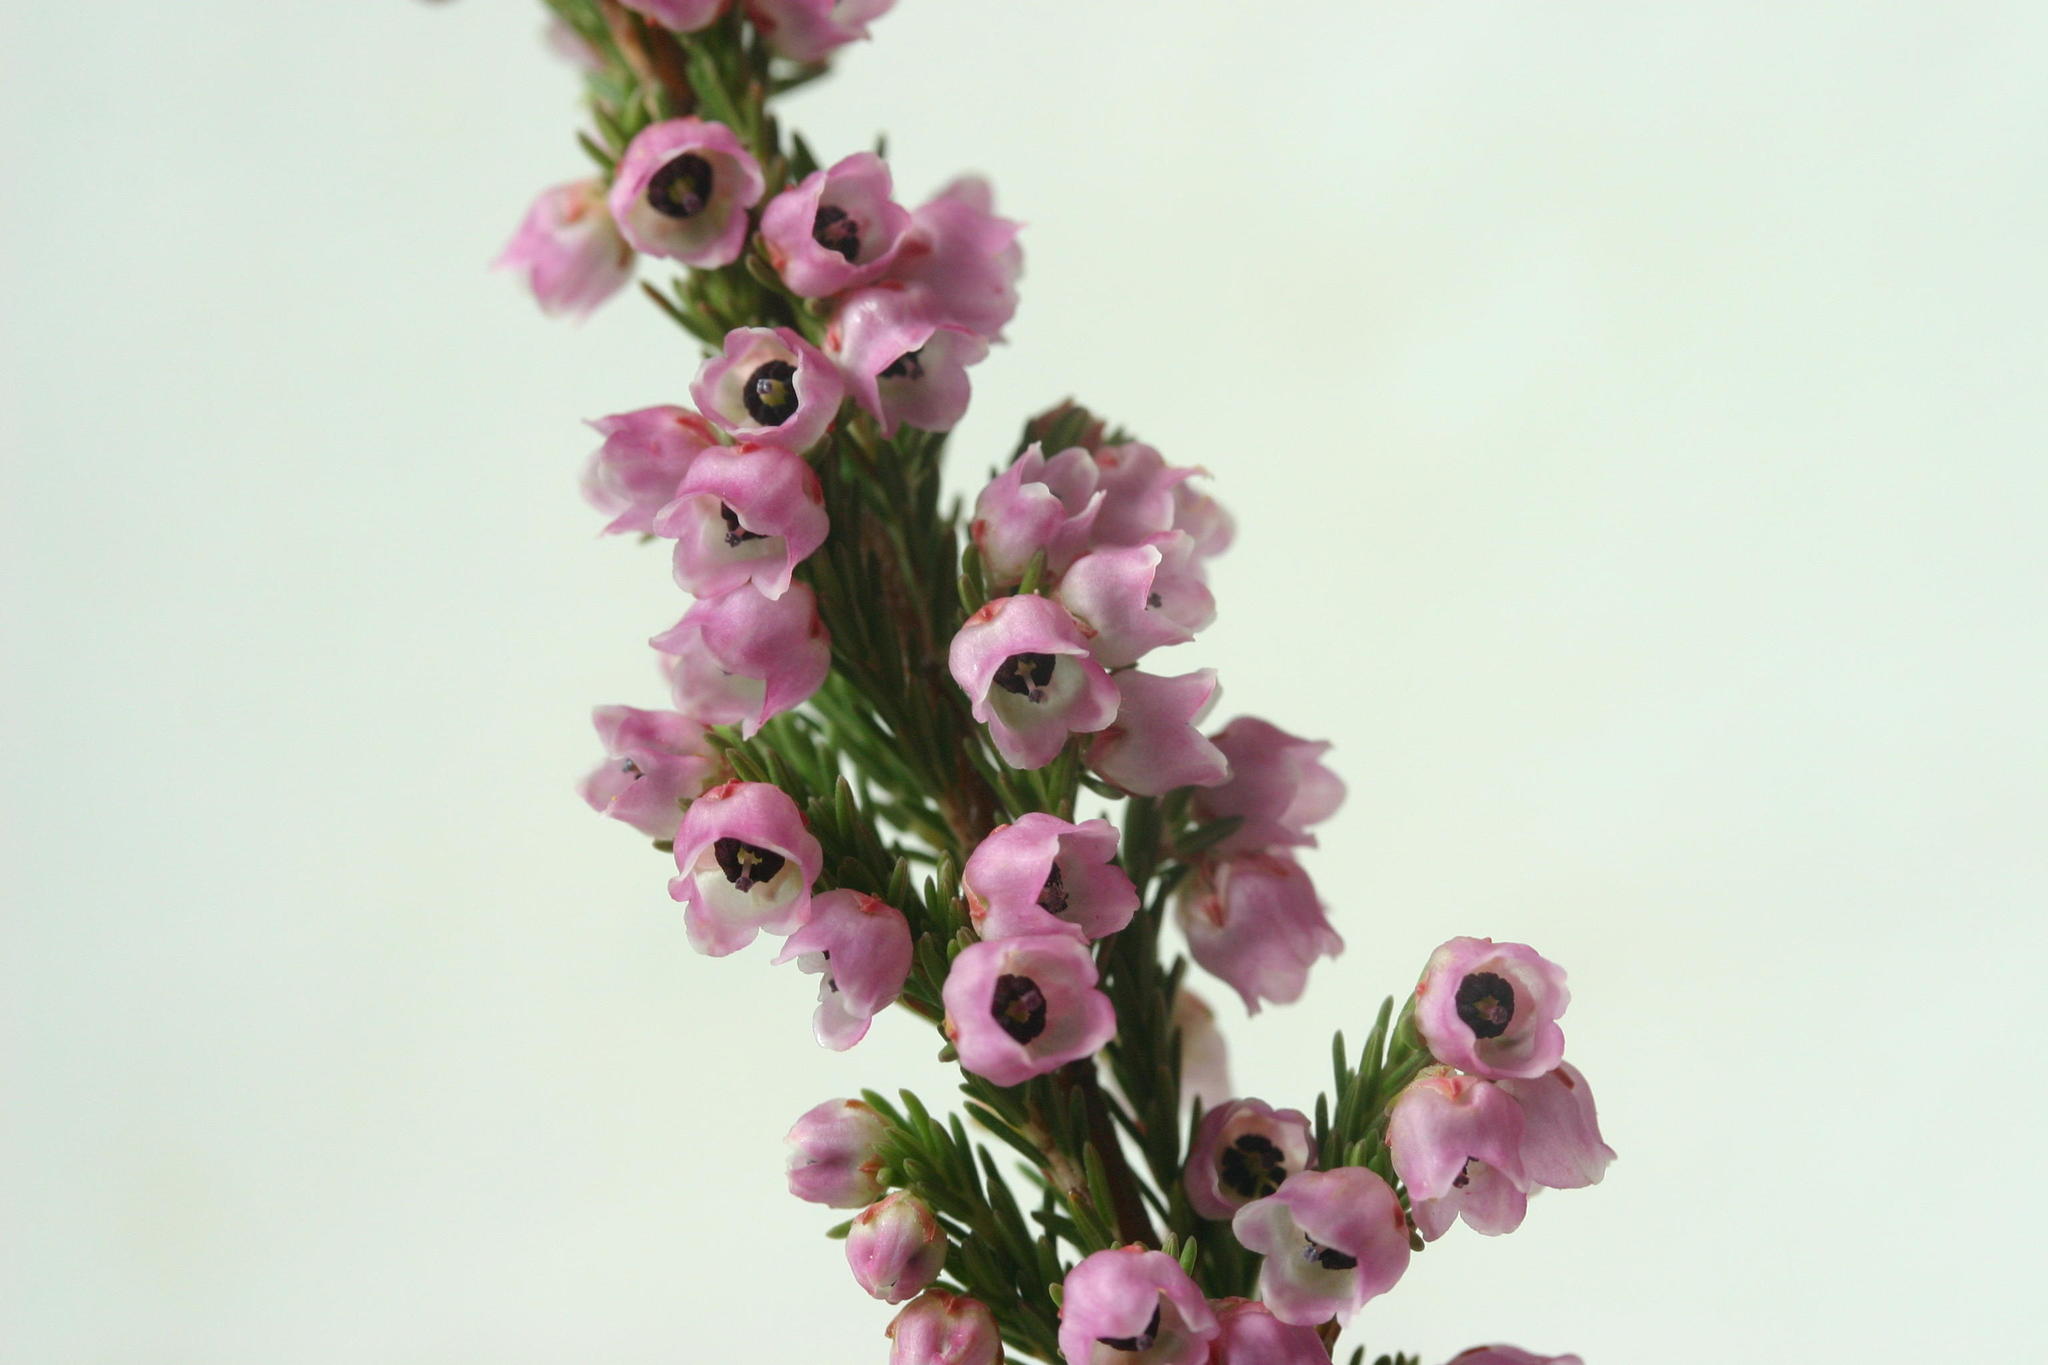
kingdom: Plantae
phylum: Tracheophyta
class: Magnoliopsida
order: Ericales
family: Ericaceae
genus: Erica
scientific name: Erica condensata
